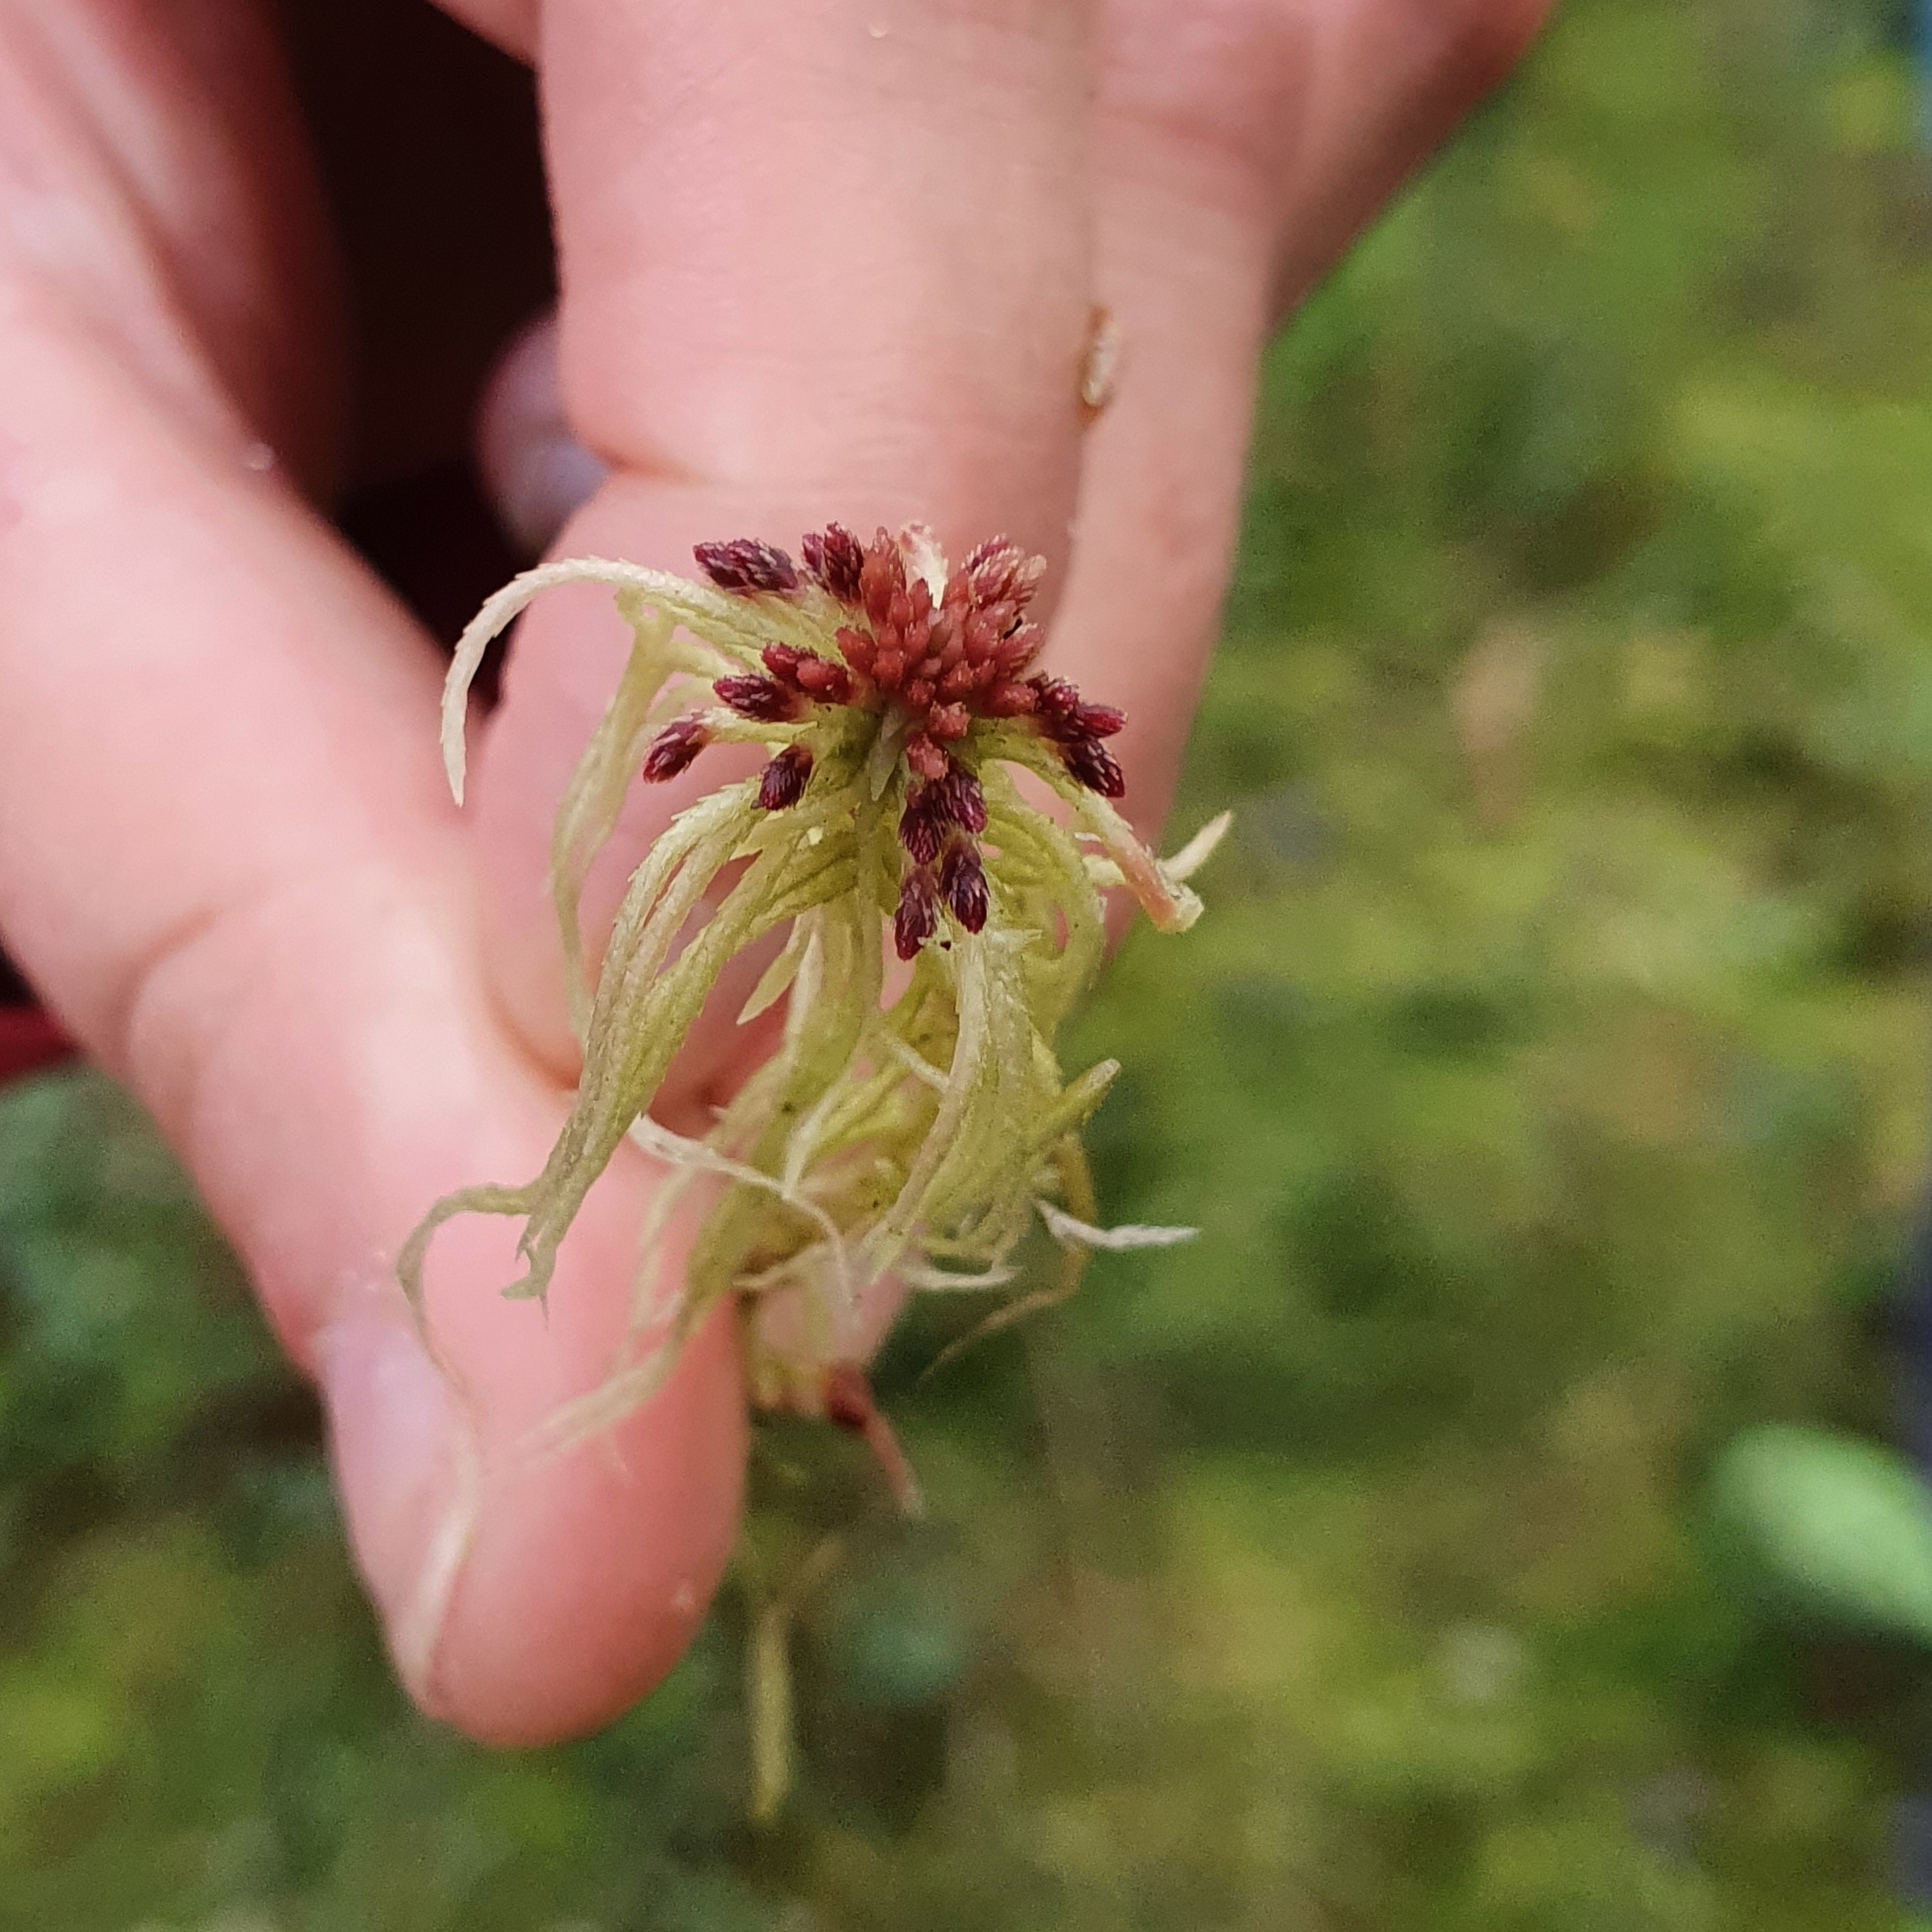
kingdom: Plantae
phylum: Bryophyta
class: Sphagnopsida
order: Sphagnales
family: Sphagnaceae
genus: Sphagnum
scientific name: Sphagnum russowii
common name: Russow's peat moss
